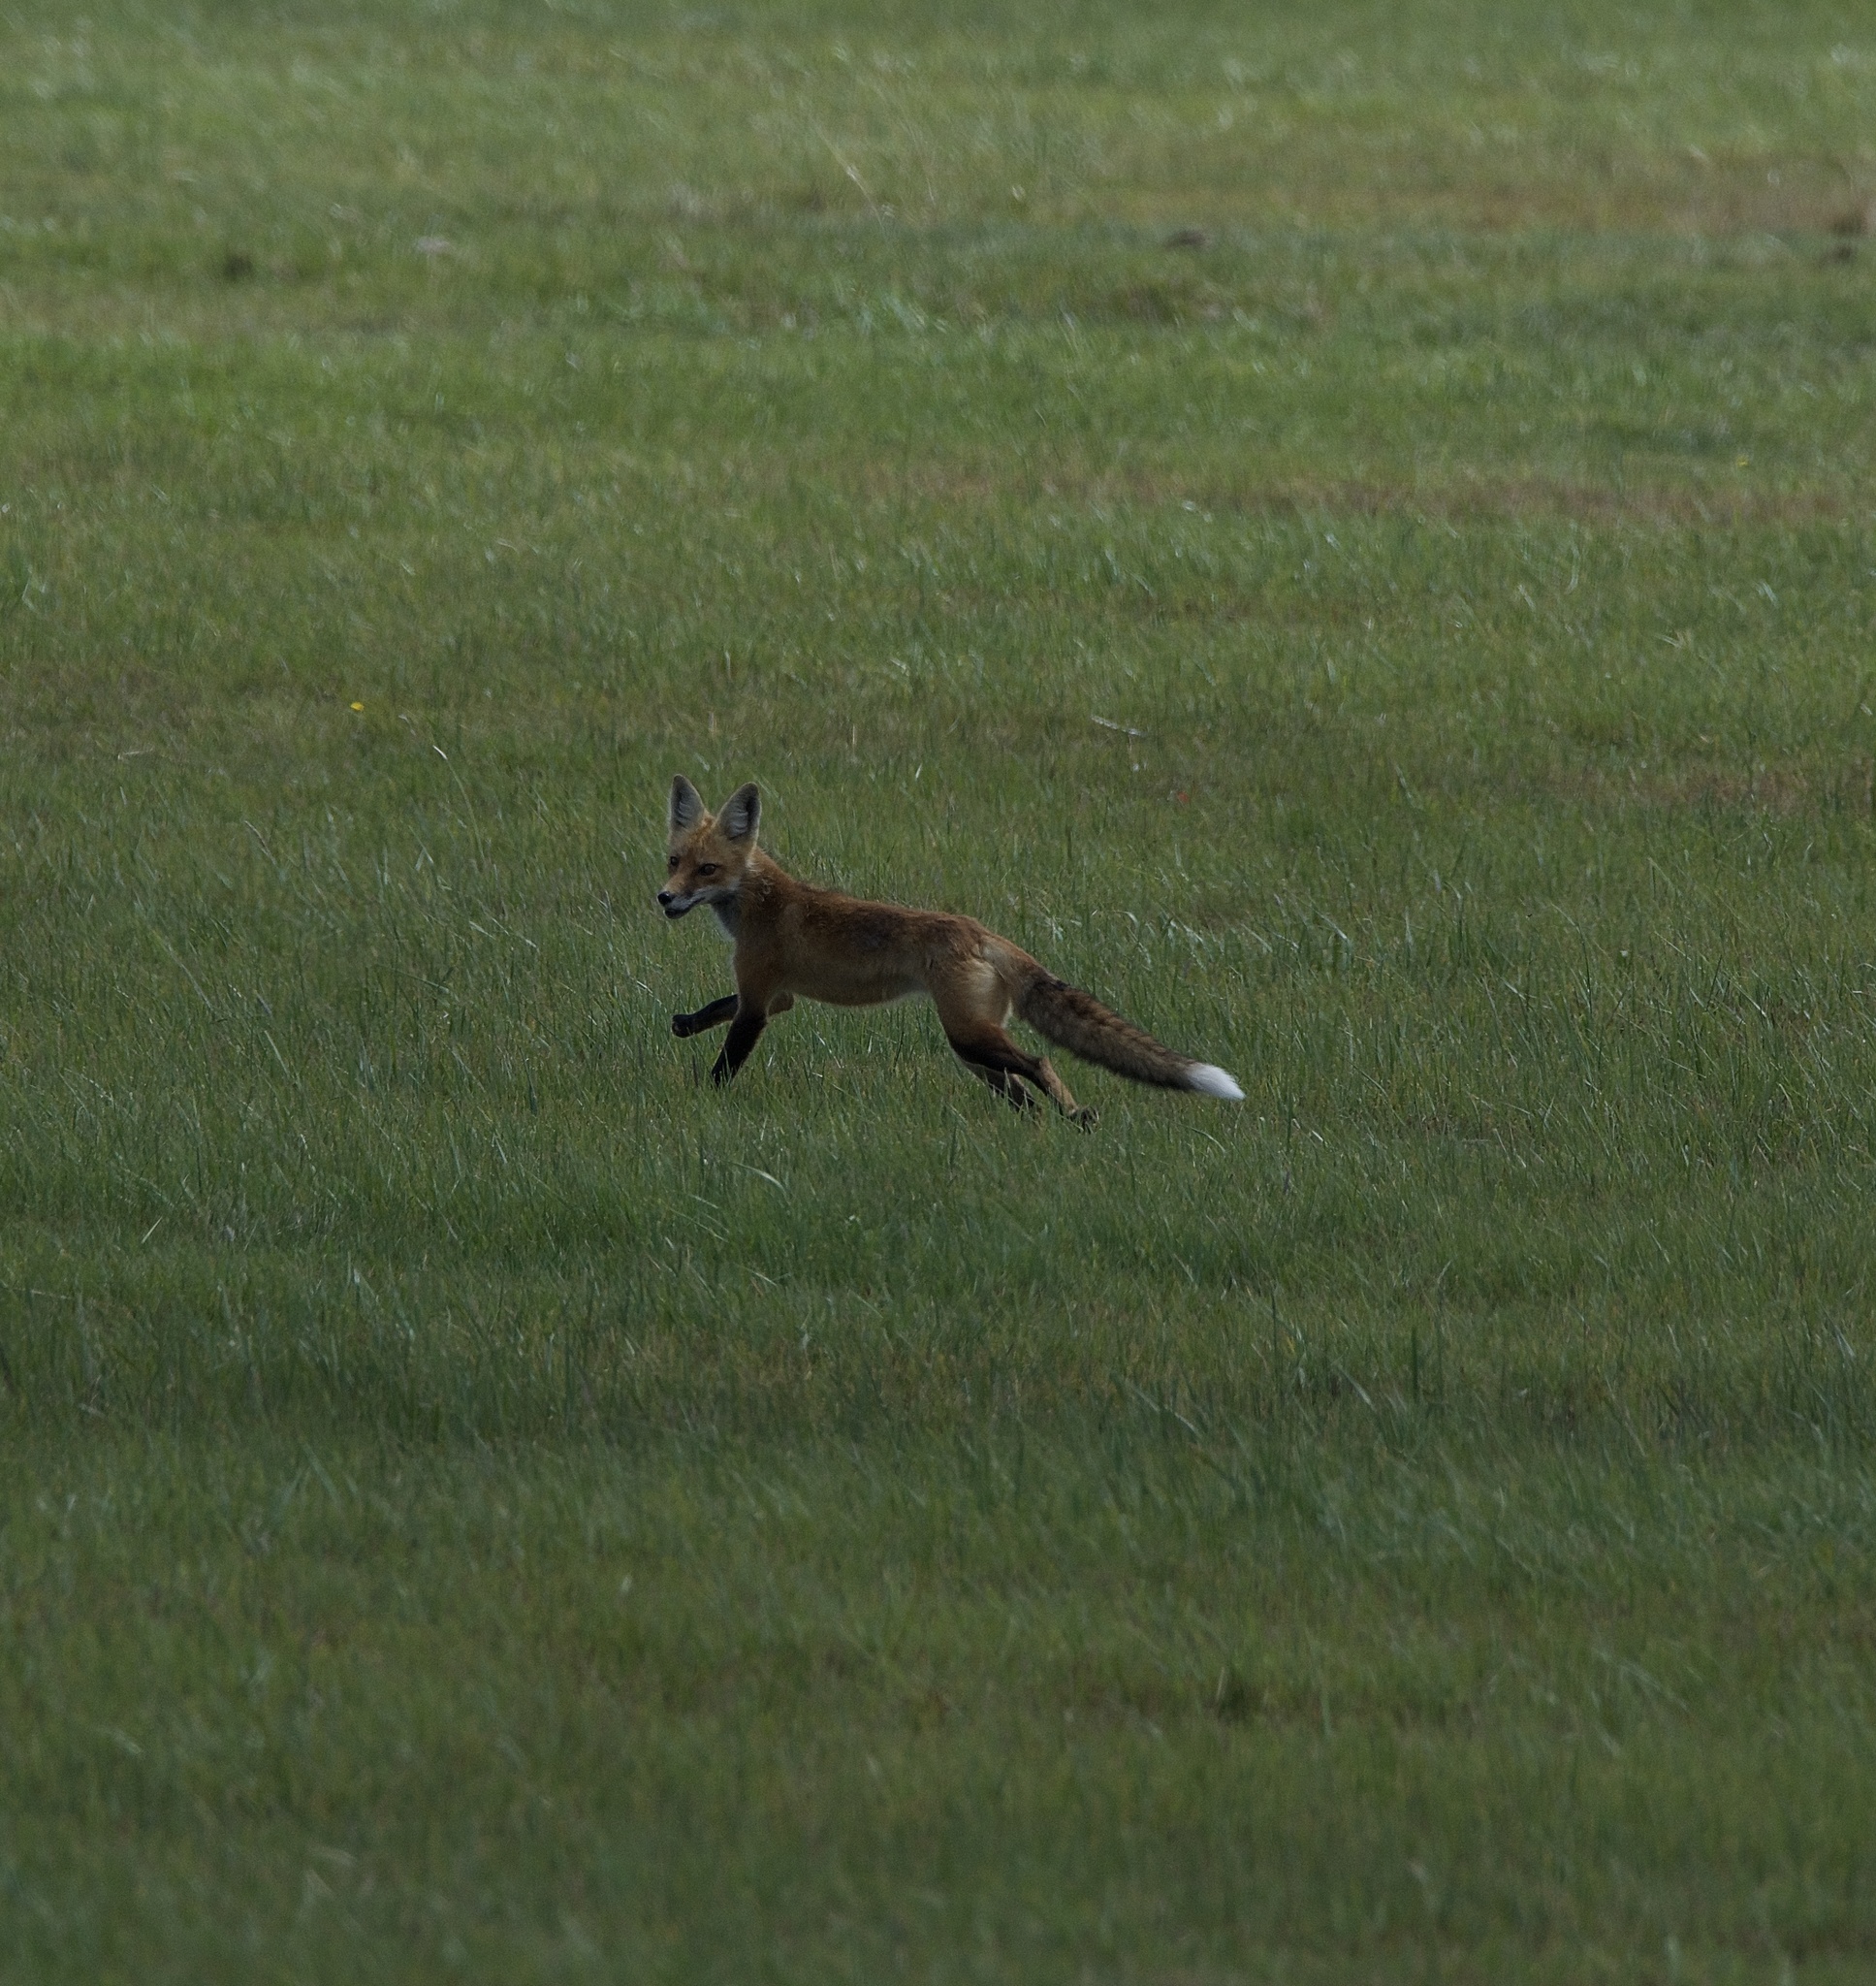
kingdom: Animalia
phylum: Chordata
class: Mammalia
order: Carnivora
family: Canidae
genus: Vulpes
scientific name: Vulpes vulpes
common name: Red fox
